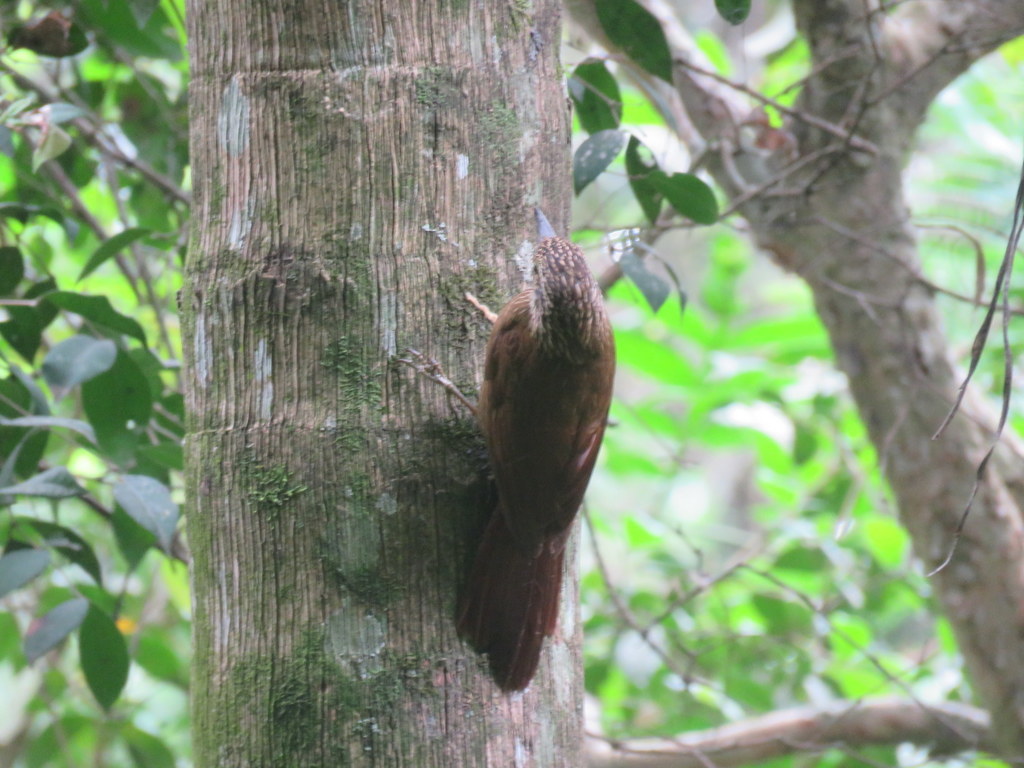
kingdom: Animalia
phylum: Chordata
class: Aves
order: Passeriformes
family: Furnariidae
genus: Dendrocolaptes
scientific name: Dendrocolaptes platyrostris
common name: Planalto woodcreeper
